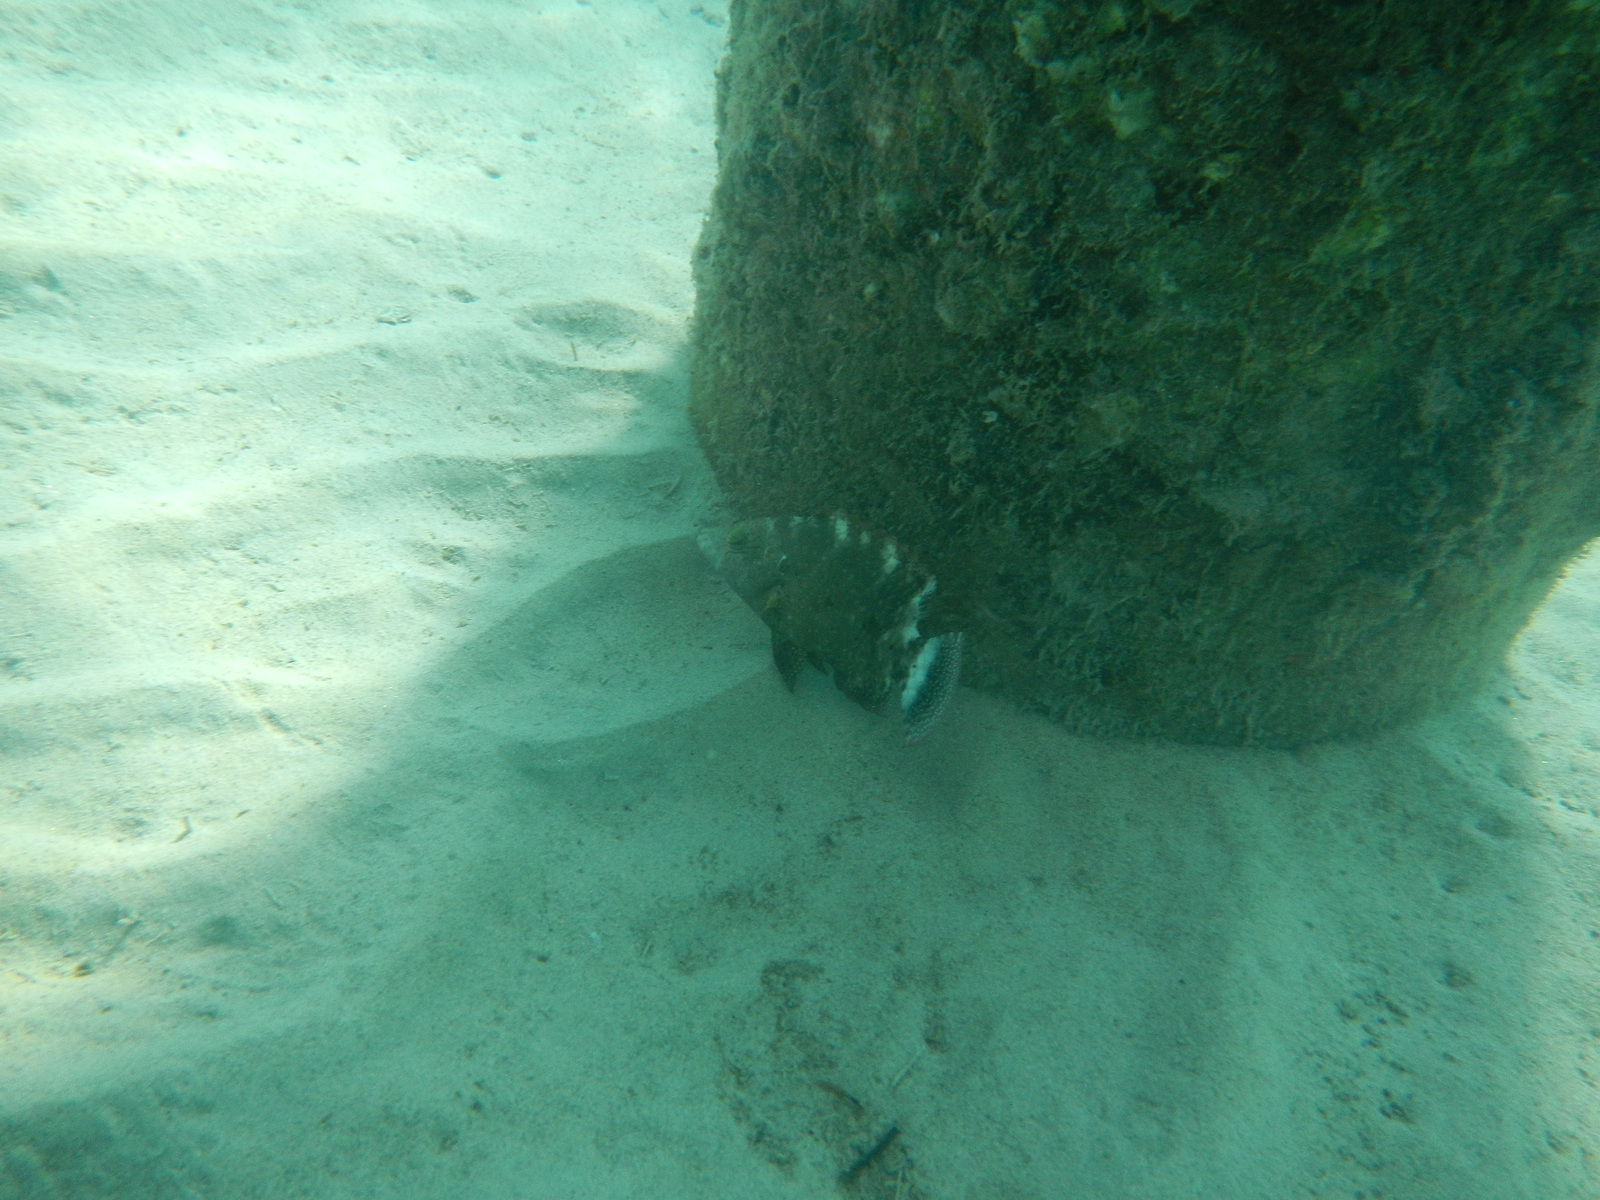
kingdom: Animalia
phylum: Chordata
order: Perciformes
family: Labridae
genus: Cheilinus
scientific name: Cheilinus chlorourus
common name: Floral wrasse
